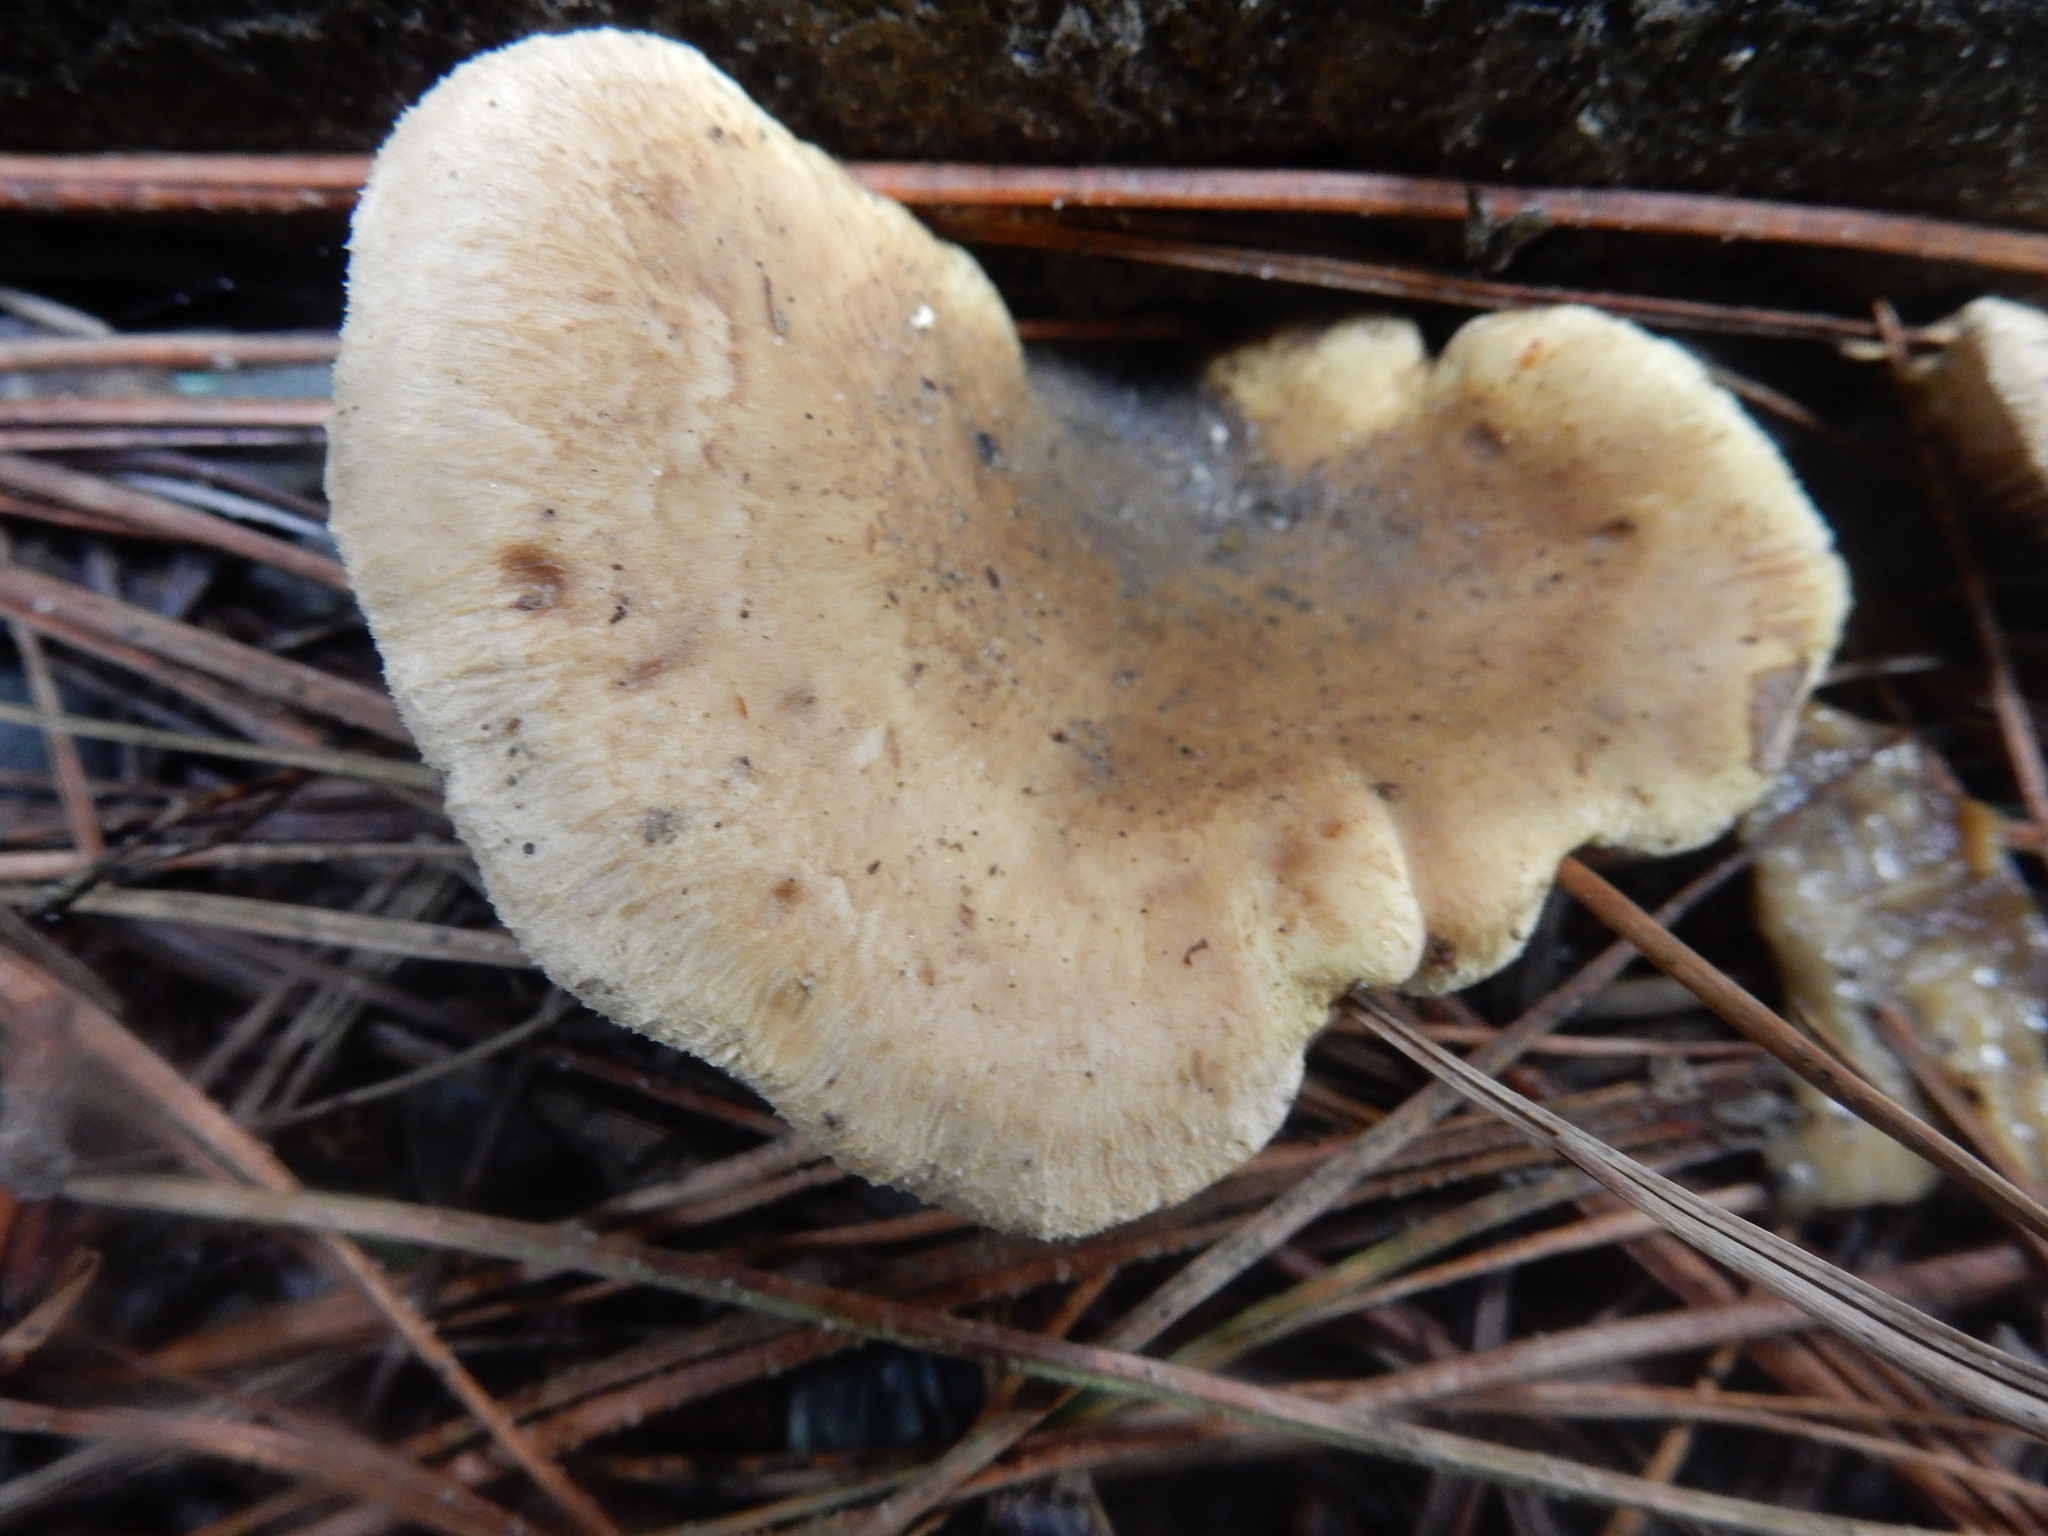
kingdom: Fungi
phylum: Basidiomycota
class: Agaricomycetes
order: Boletales
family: Tapinellaceae
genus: Tapinella
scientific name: Tapinella panuoides
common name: Oyster rollrim
